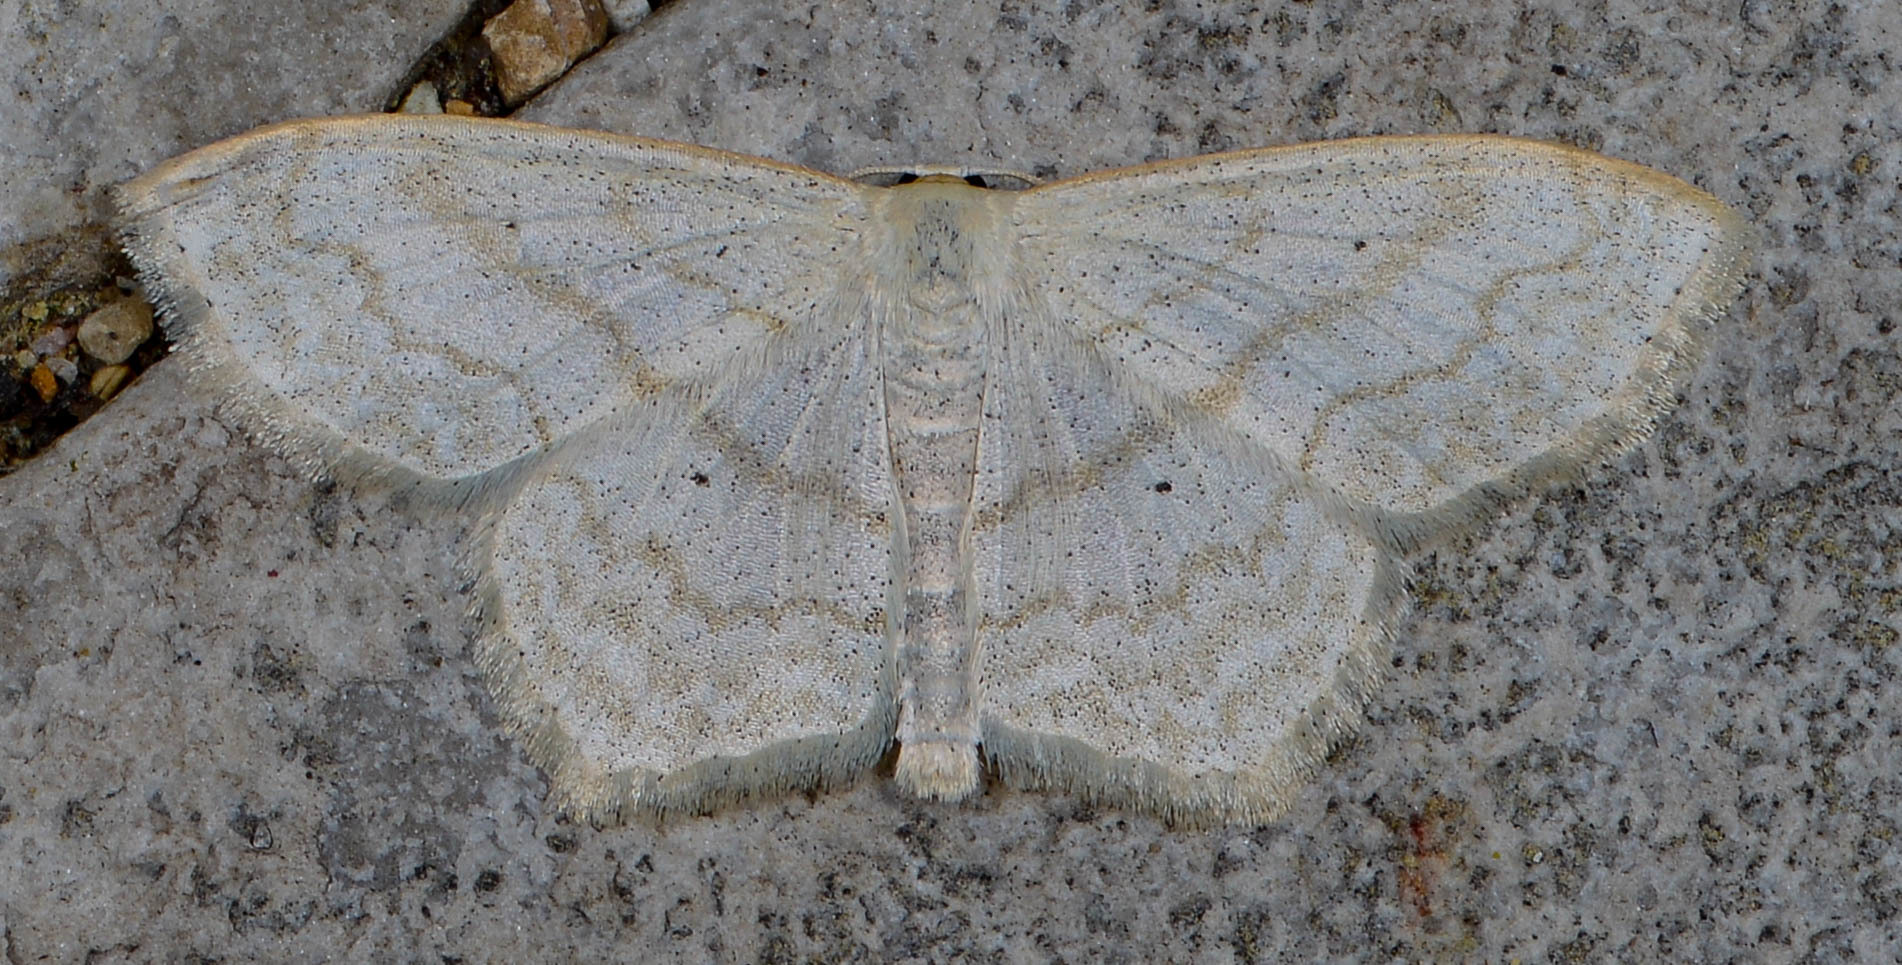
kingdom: Animalia
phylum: Arthropoda
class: Insecta
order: Lepidoptera
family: Geometridae
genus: Scopula
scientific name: Scopula limboundata
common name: Large lace border
